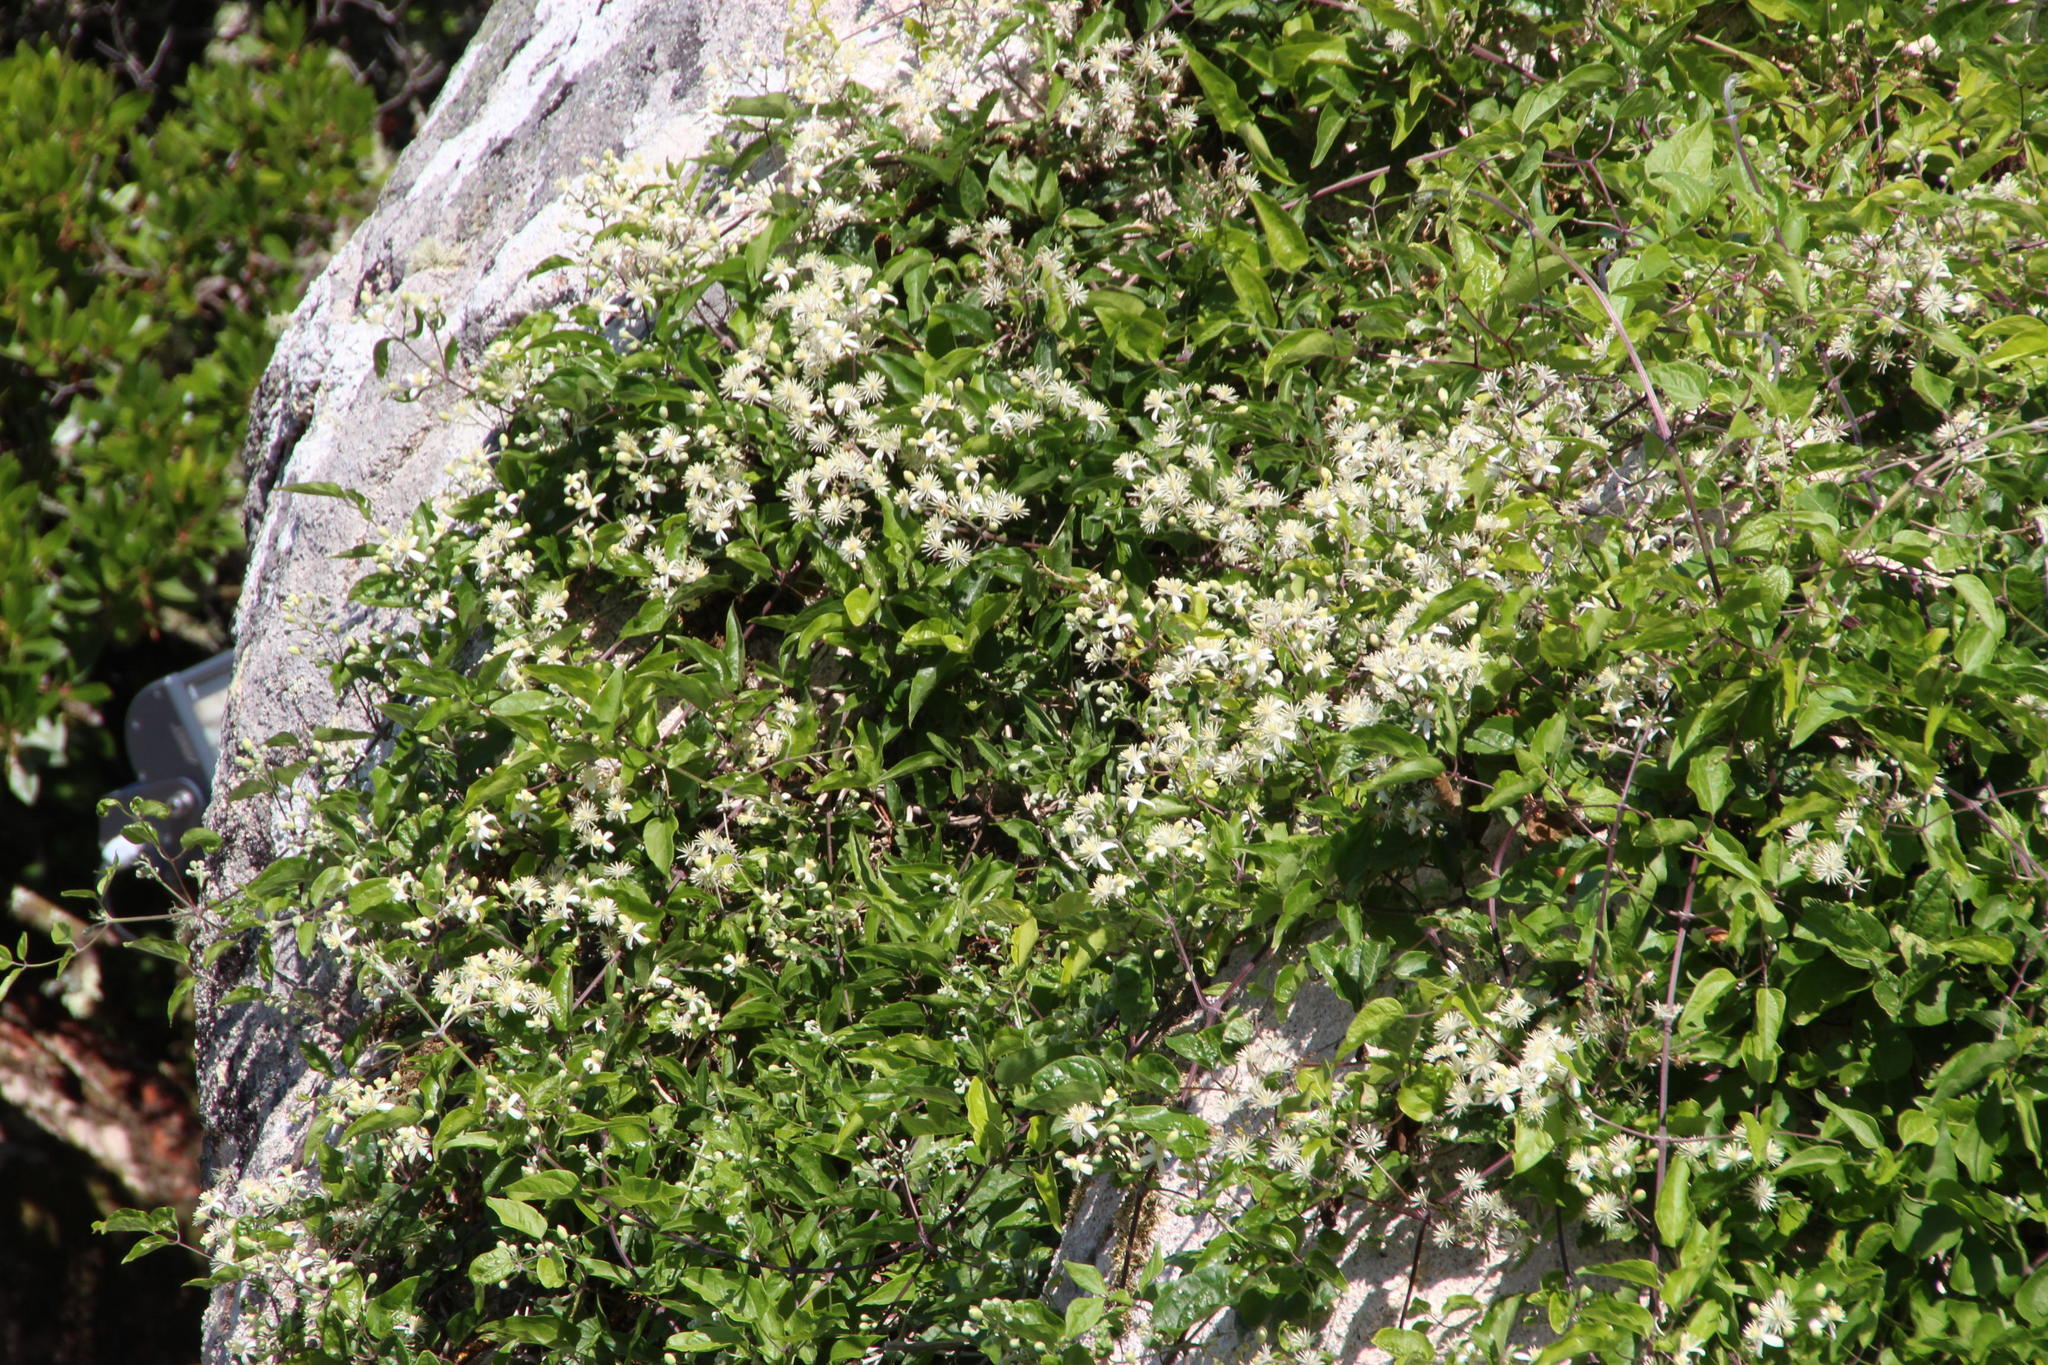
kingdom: Plantae
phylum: Tracheophyta
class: Magnoliopsida
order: Ranunculales
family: Ranunculaceae
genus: Clematis
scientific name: Clematis vitalba
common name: Evergreen clematis
